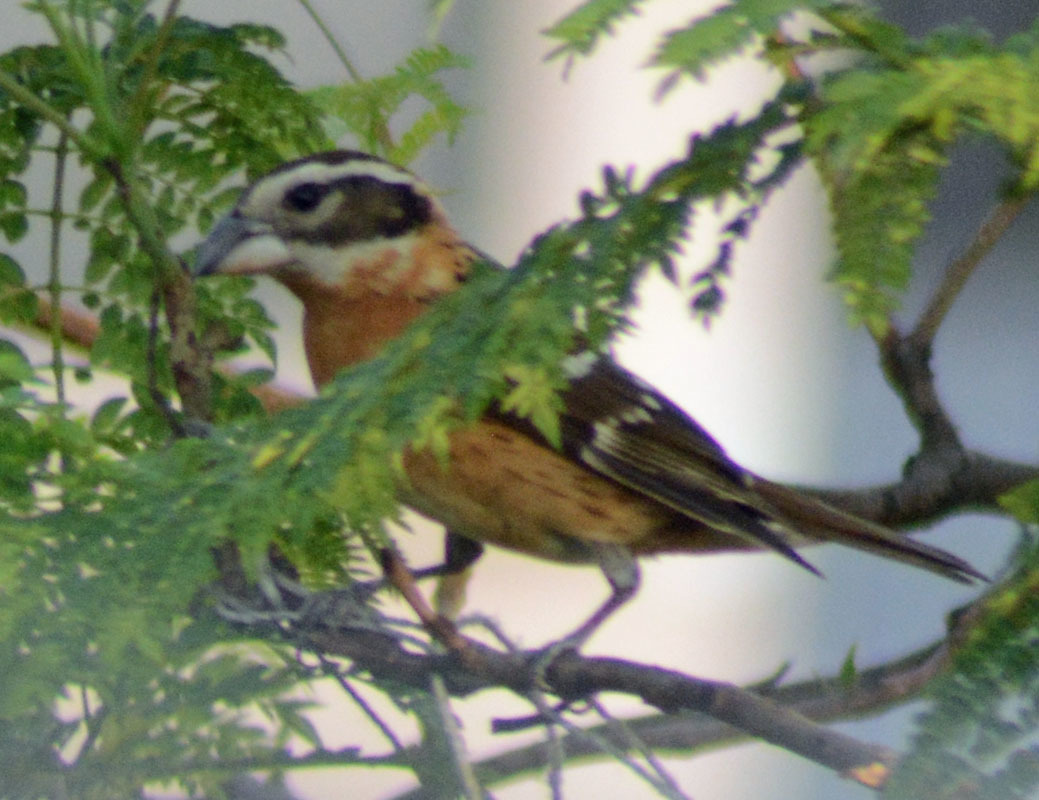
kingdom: Animalia
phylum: Chordata
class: Aves
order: Passeriformes
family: Cardinalidae
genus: Pheucticus
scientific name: Pheucticus melanocephalus
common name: Black-headed grosbeak
